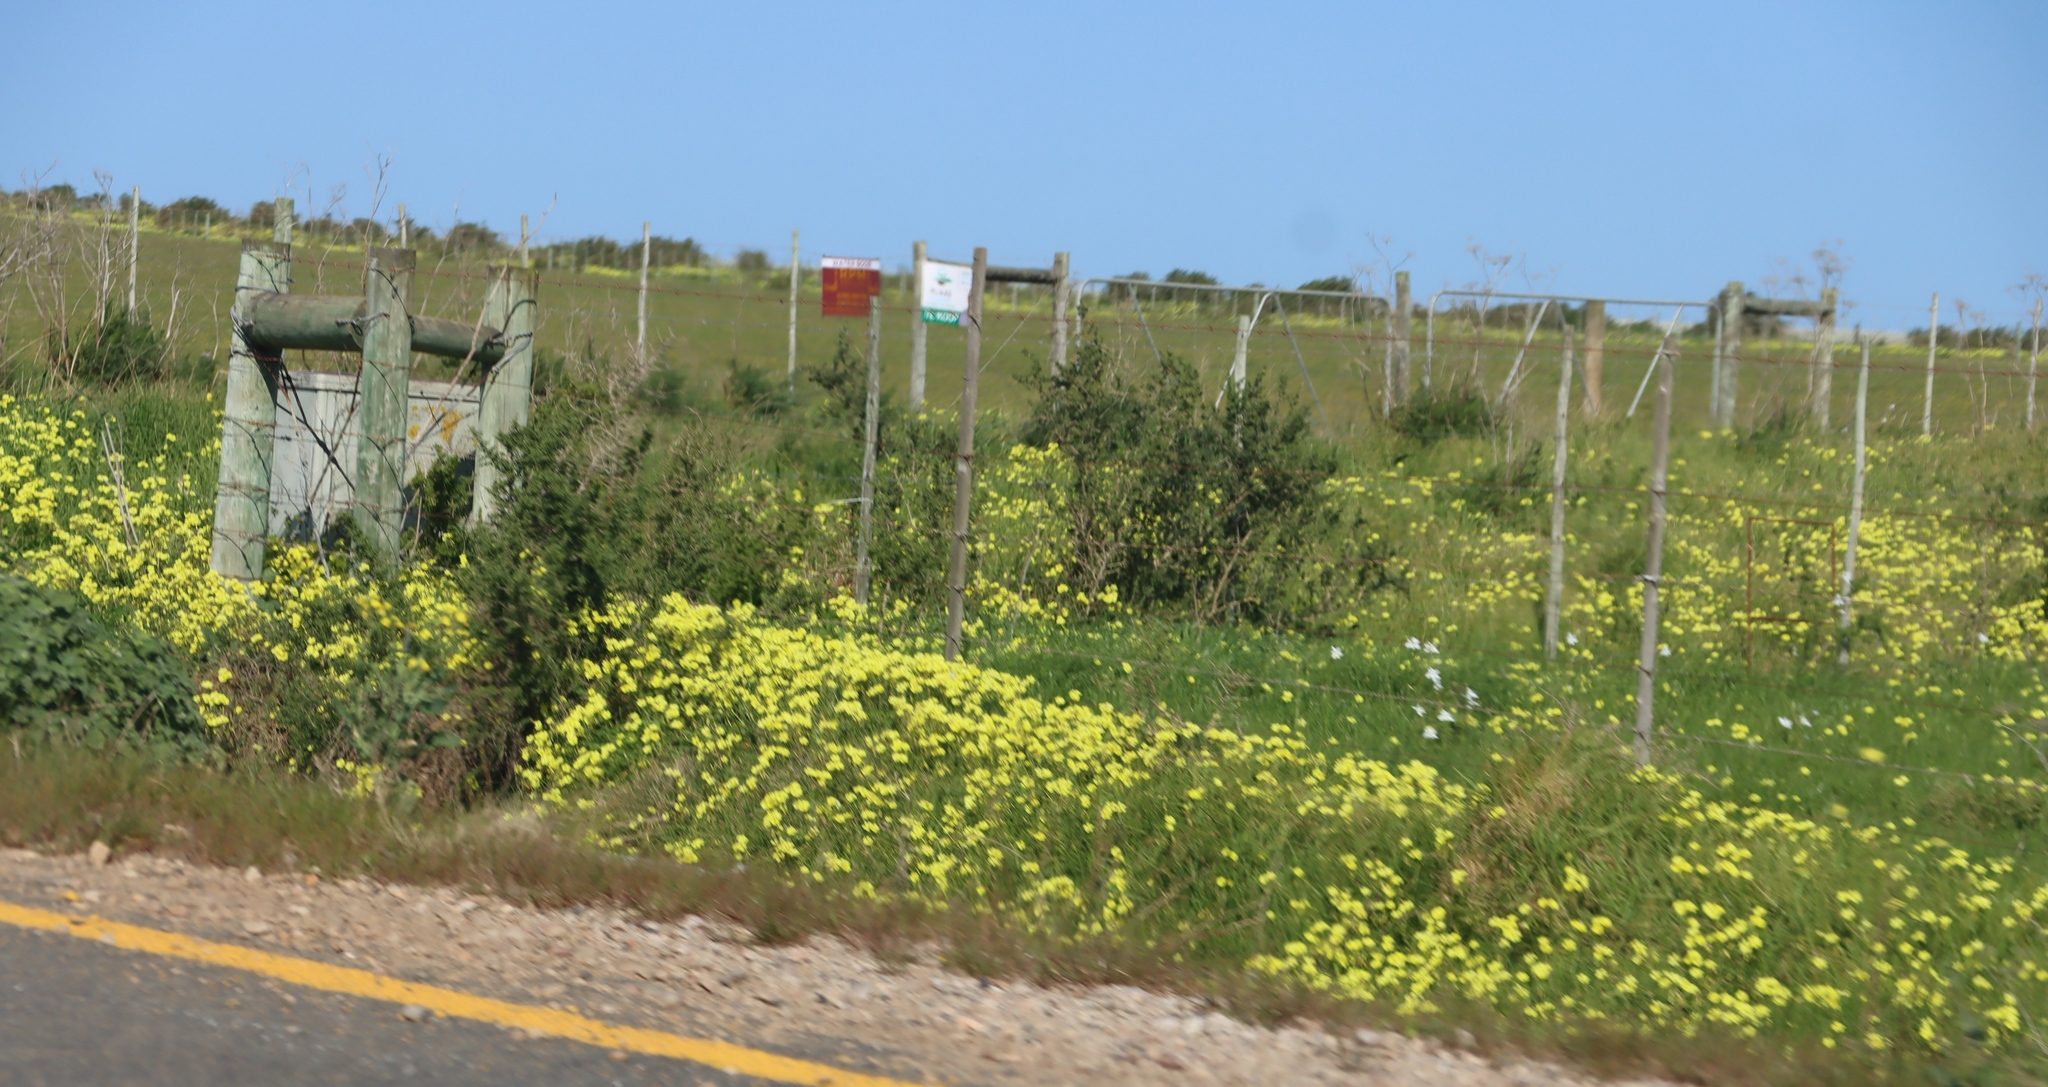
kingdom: Plantae
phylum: Tracheophyta
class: Magnoliopsida
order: Oxalidales
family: Oxalidaceae
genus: Oxalis
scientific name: Oxalis pes-caprae
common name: Bermuda-buttercup
